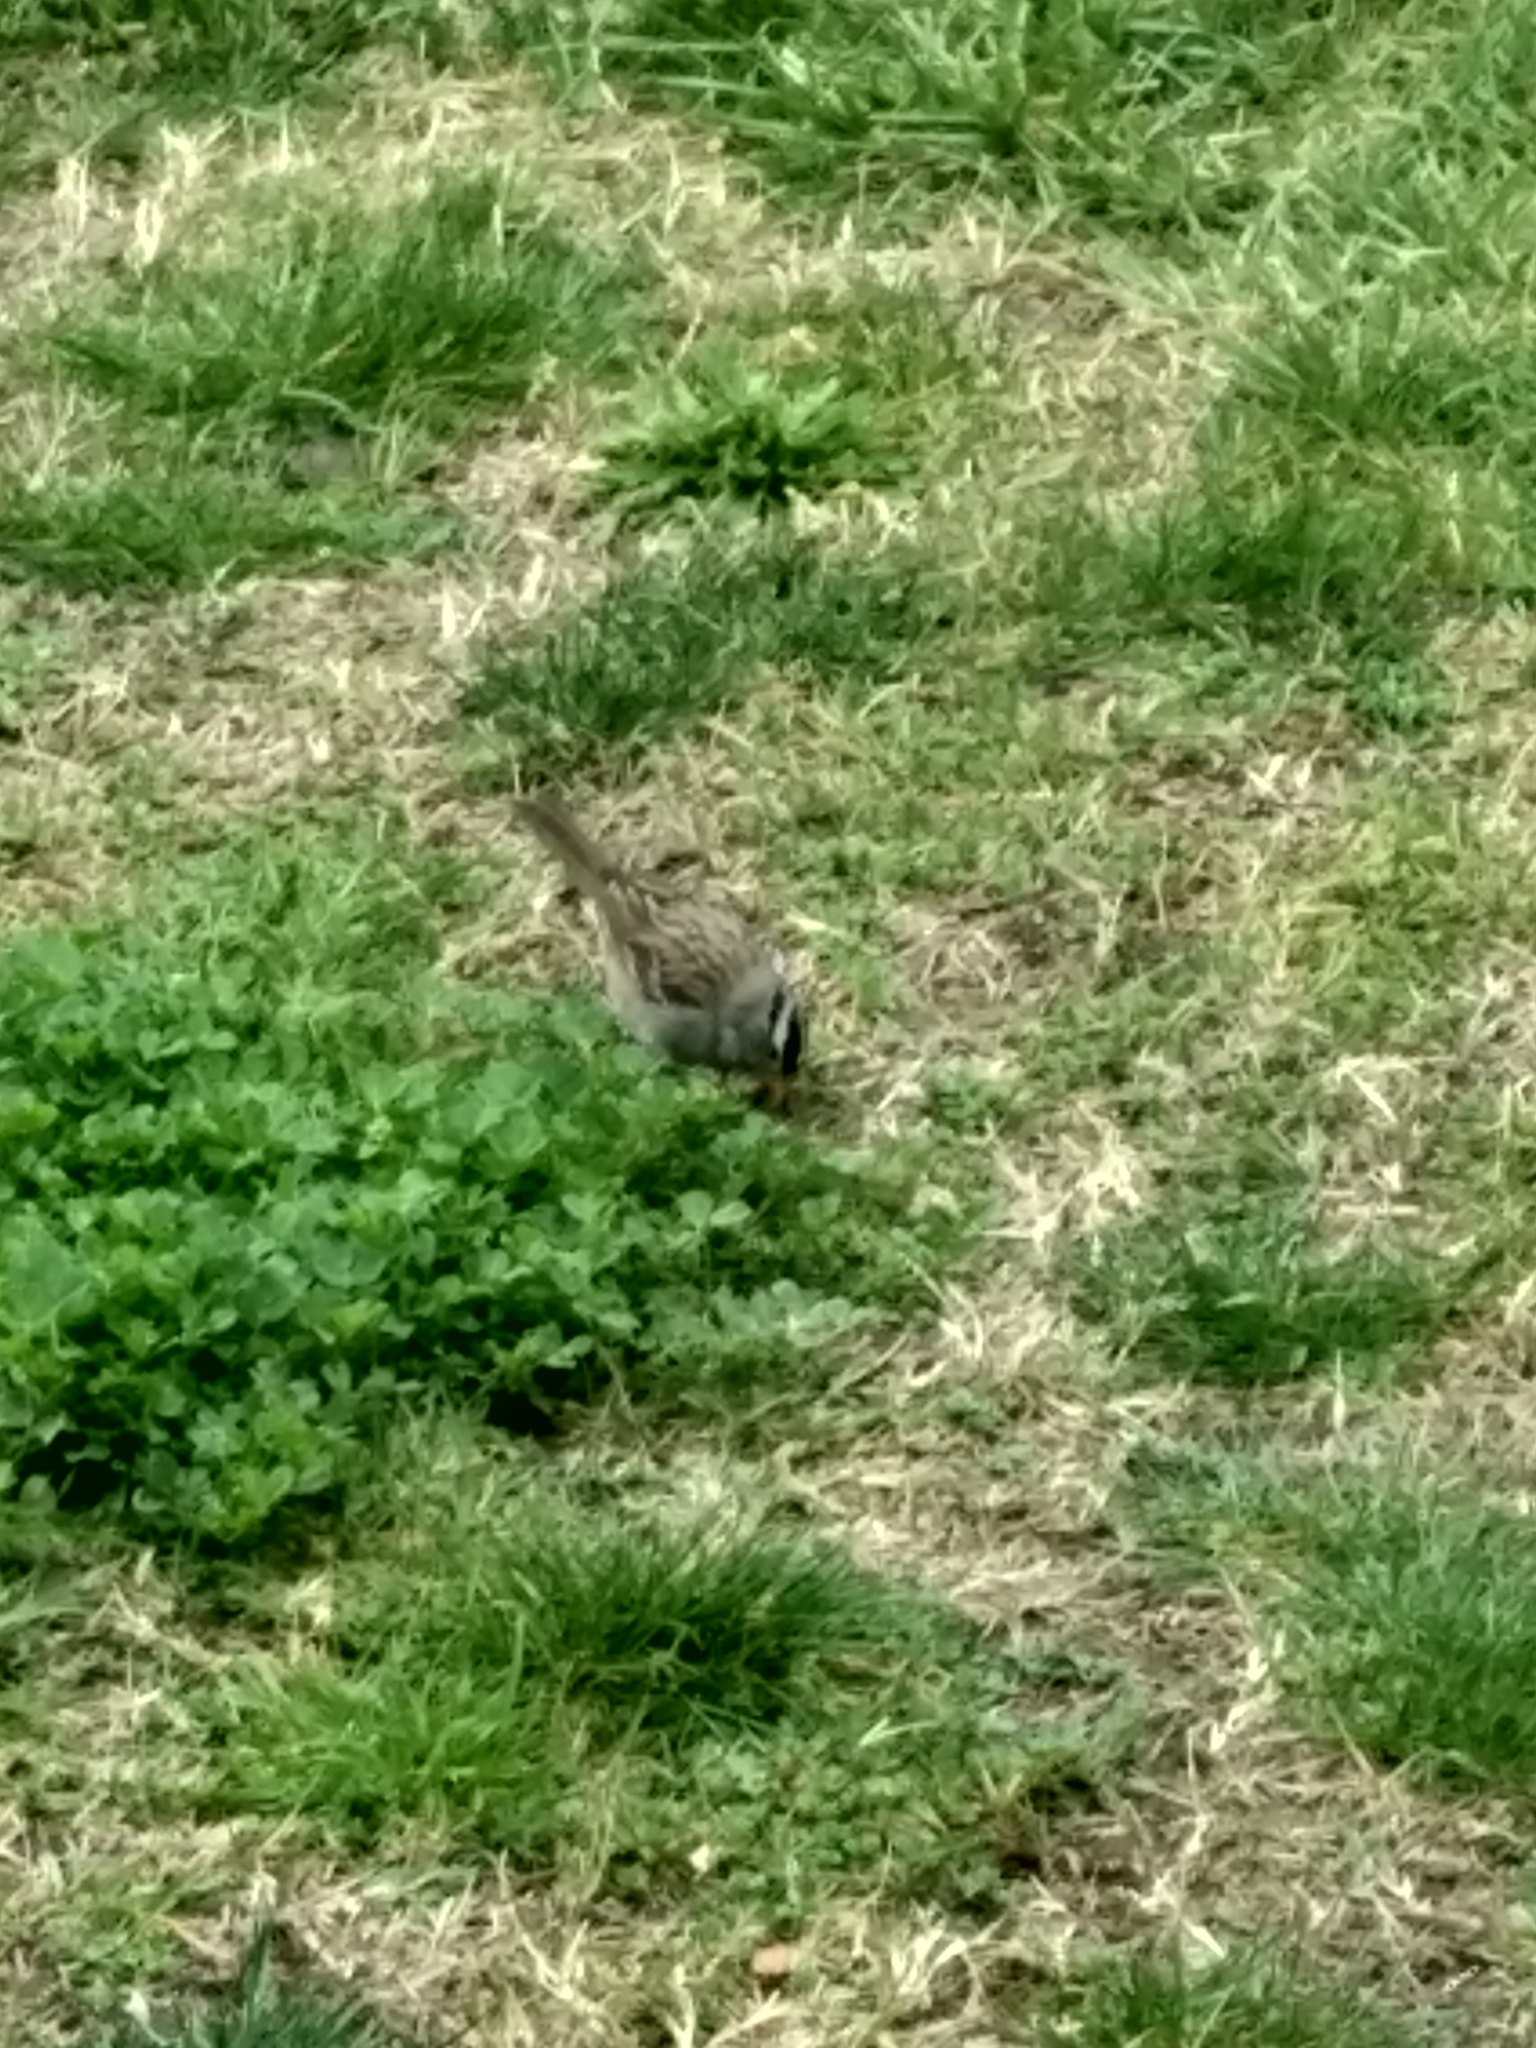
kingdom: Animalia
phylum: Chordata
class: Aves
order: Passeriformes
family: Passerellidae
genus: Zonotrichia
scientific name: Zonotrichia leucophrys
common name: White-crowned sparrow
